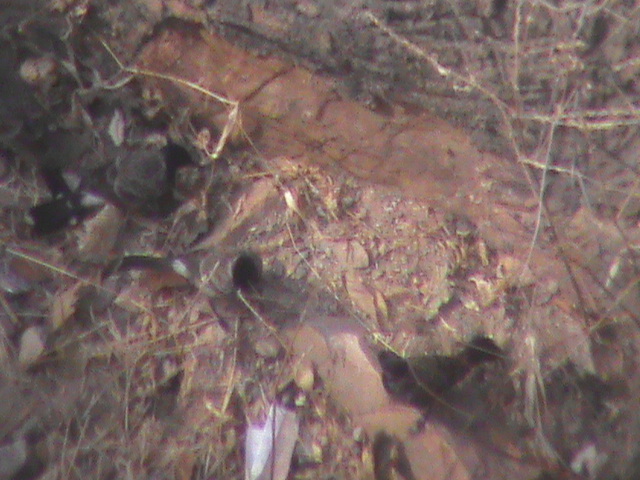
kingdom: Animalia
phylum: Chordata
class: Aves
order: Passeriformes
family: Pycnonotidae
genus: Pycnonotus
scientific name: Pycnonotus cafer
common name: Red-vented bulbul
